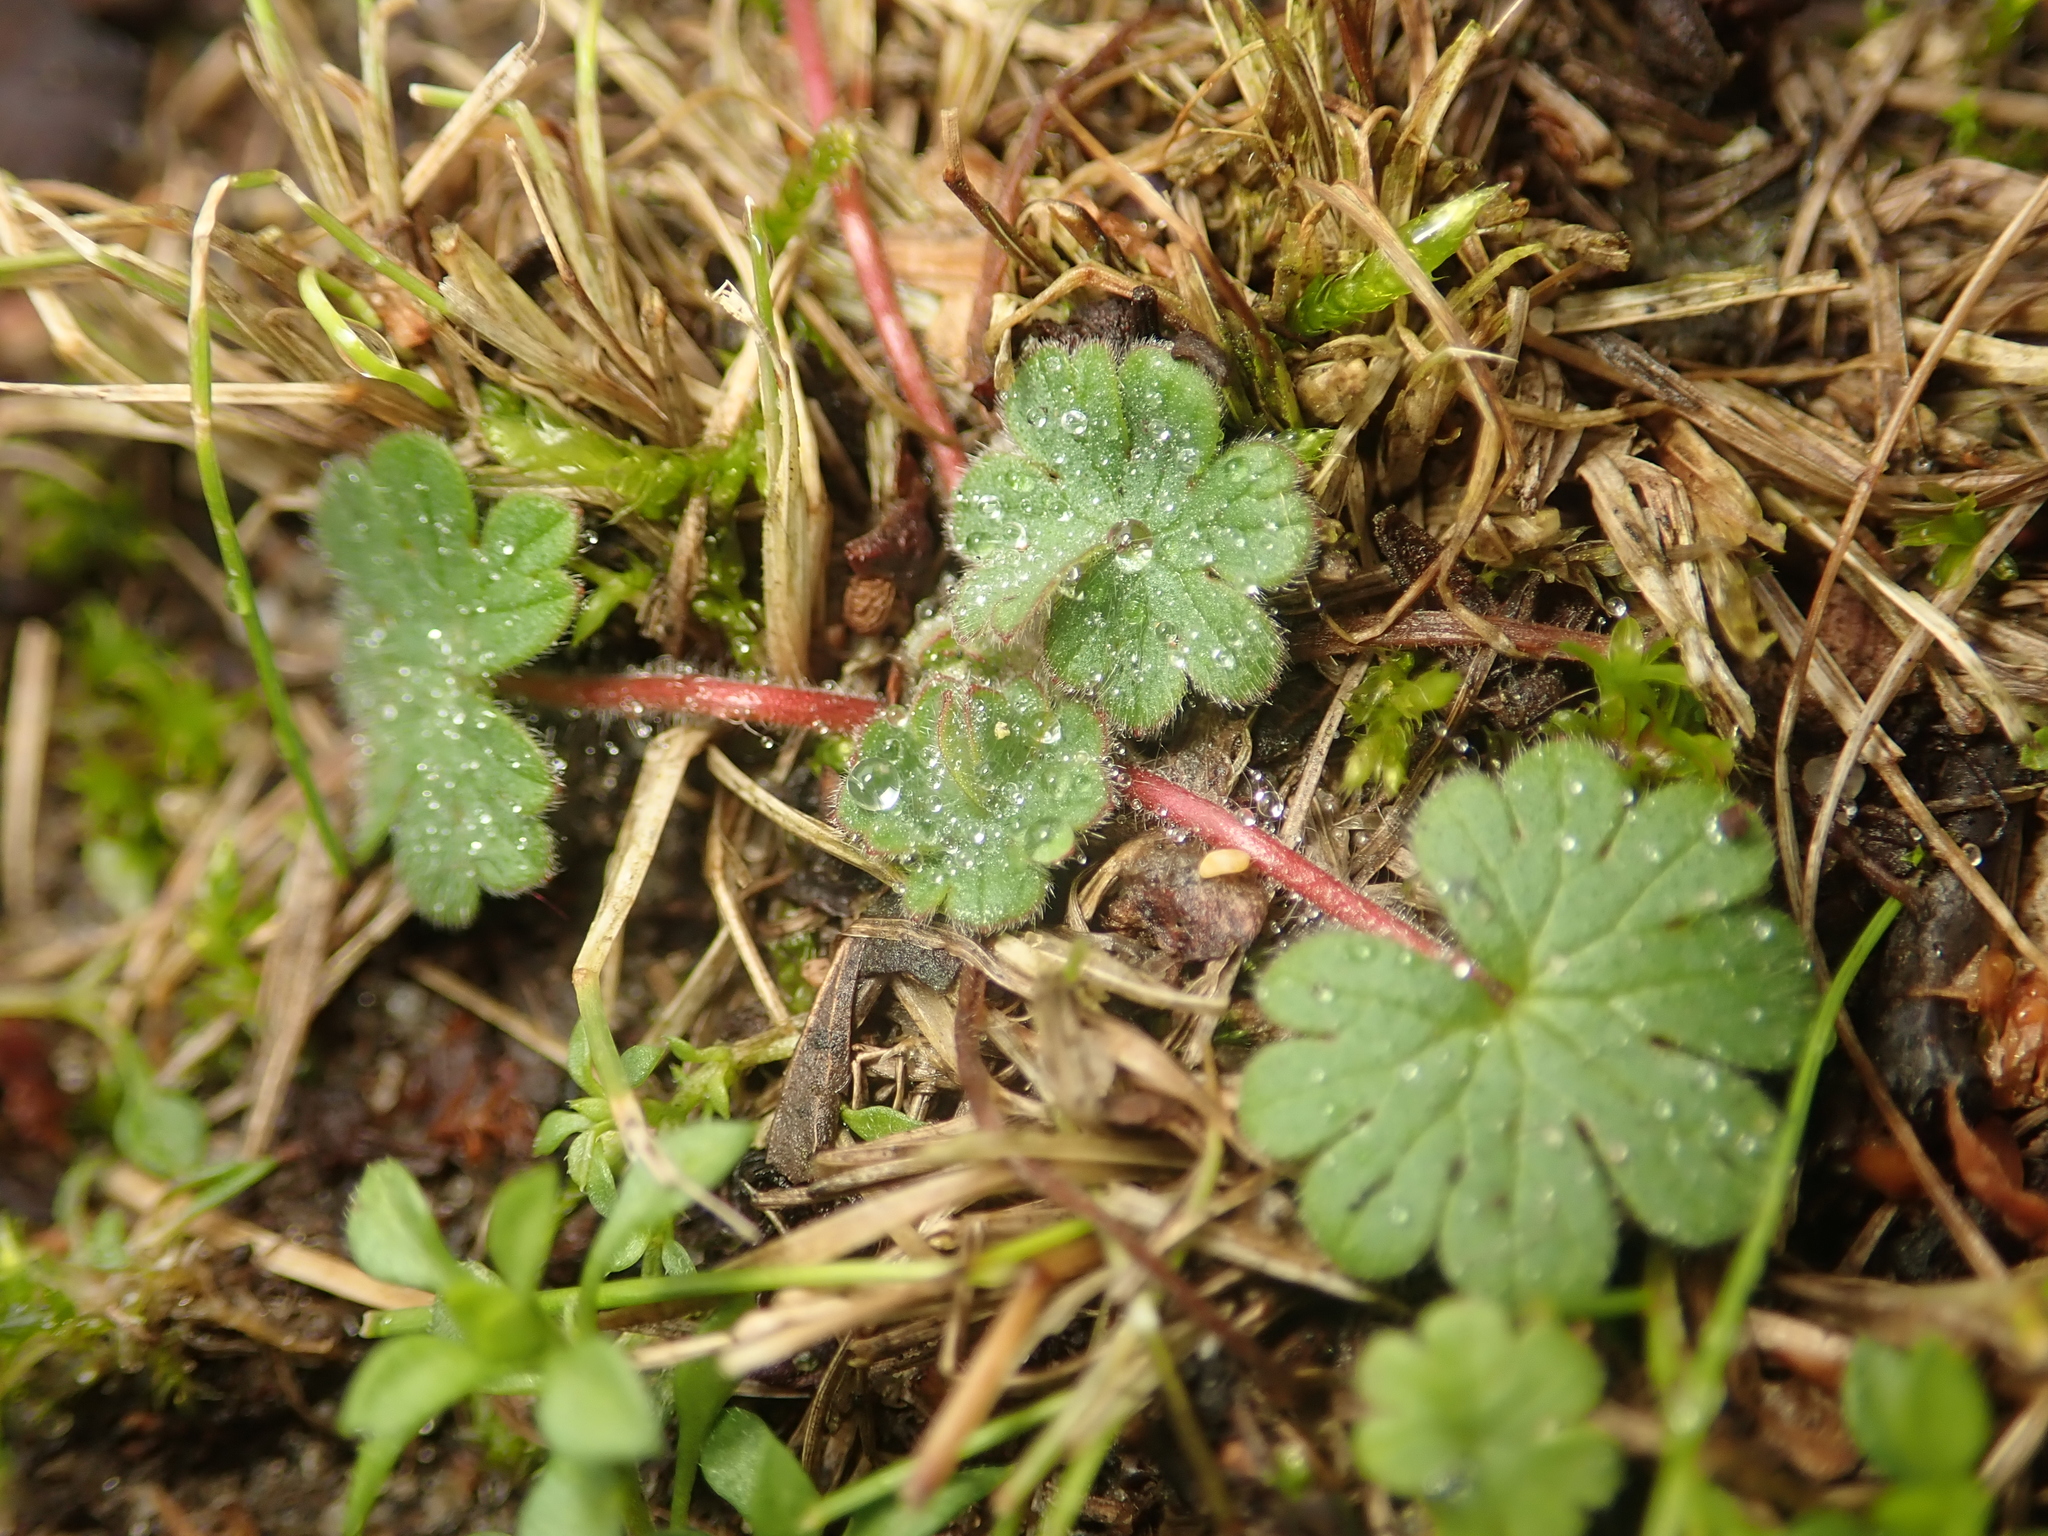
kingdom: Plantae
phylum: Tracheophyta
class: Magnoliopsida
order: Geraniales
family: Geraniaceae
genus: Geranium
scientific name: Geranium molle
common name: Dove's-foot crane's-bill
